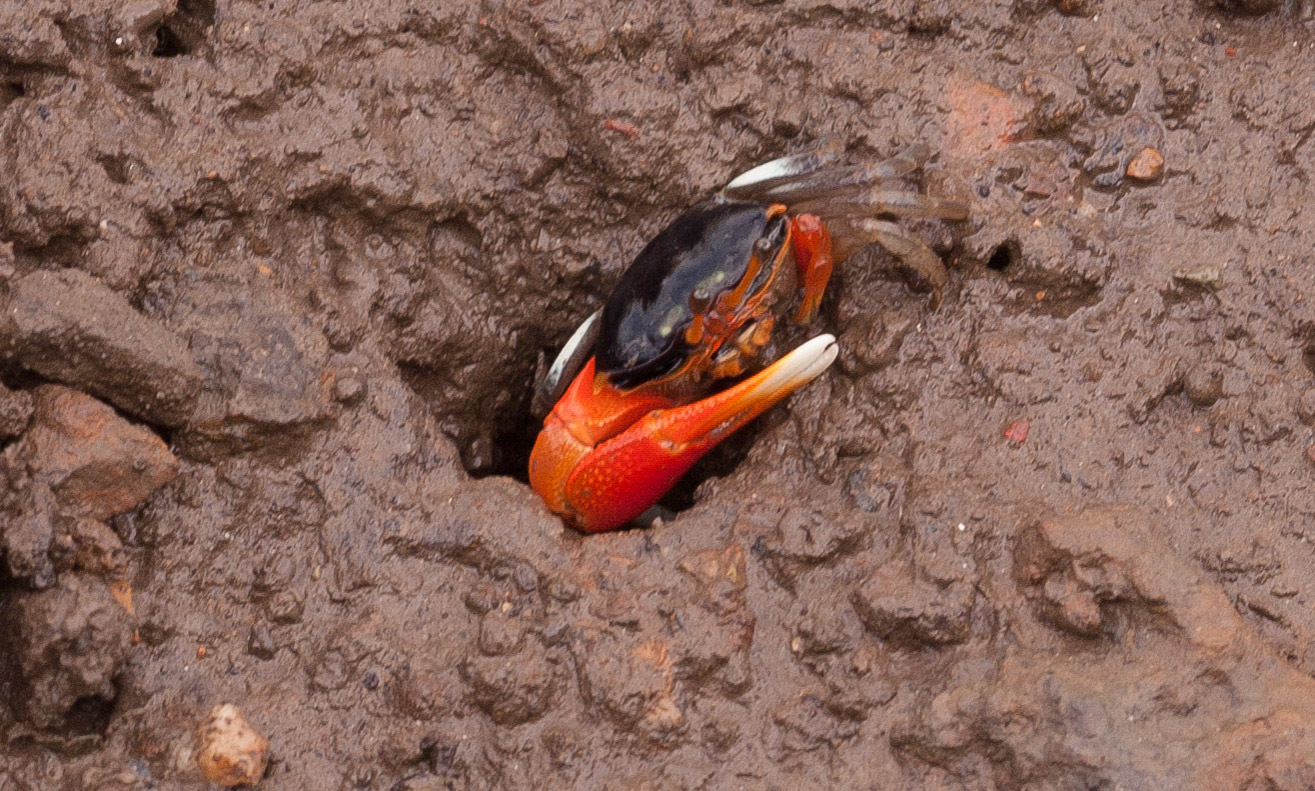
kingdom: Animalia
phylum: Arthropoda
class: Malacostraca
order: Decapoda
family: Ocypodidae
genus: Tubuca
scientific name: Tubuca coarctata
